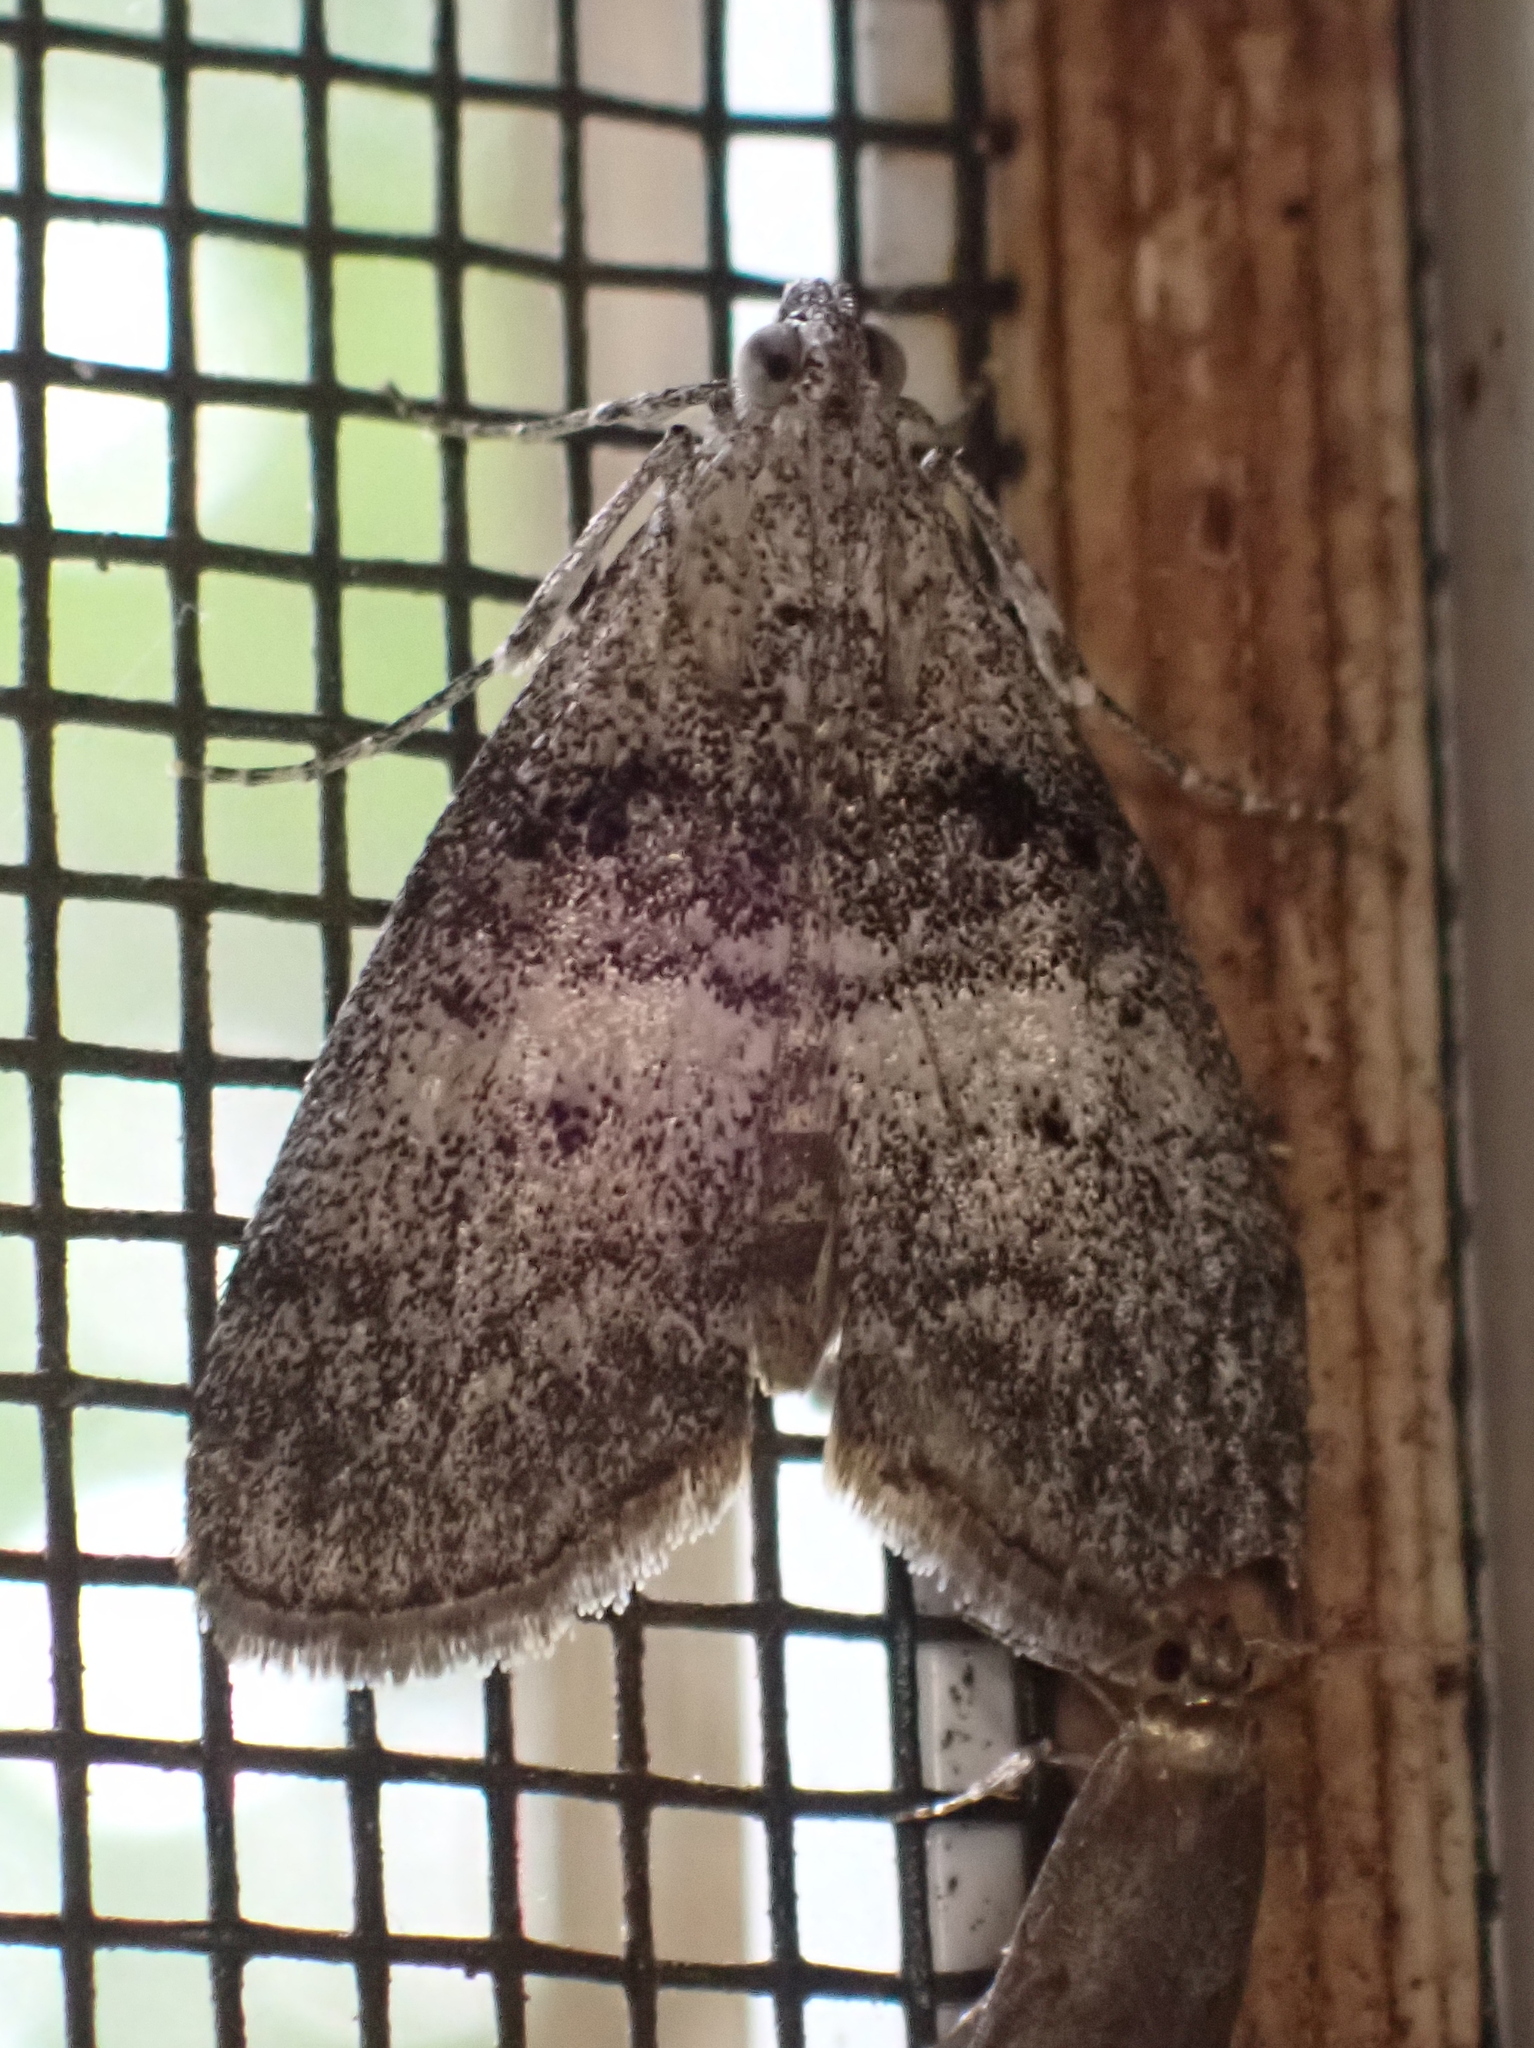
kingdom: Animalia
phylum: Arthropoda
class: Insecta
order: Lepidoptera
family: Pyralidae
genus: Pococera
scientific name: Pococera asperatella
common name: Maple webworm moth
